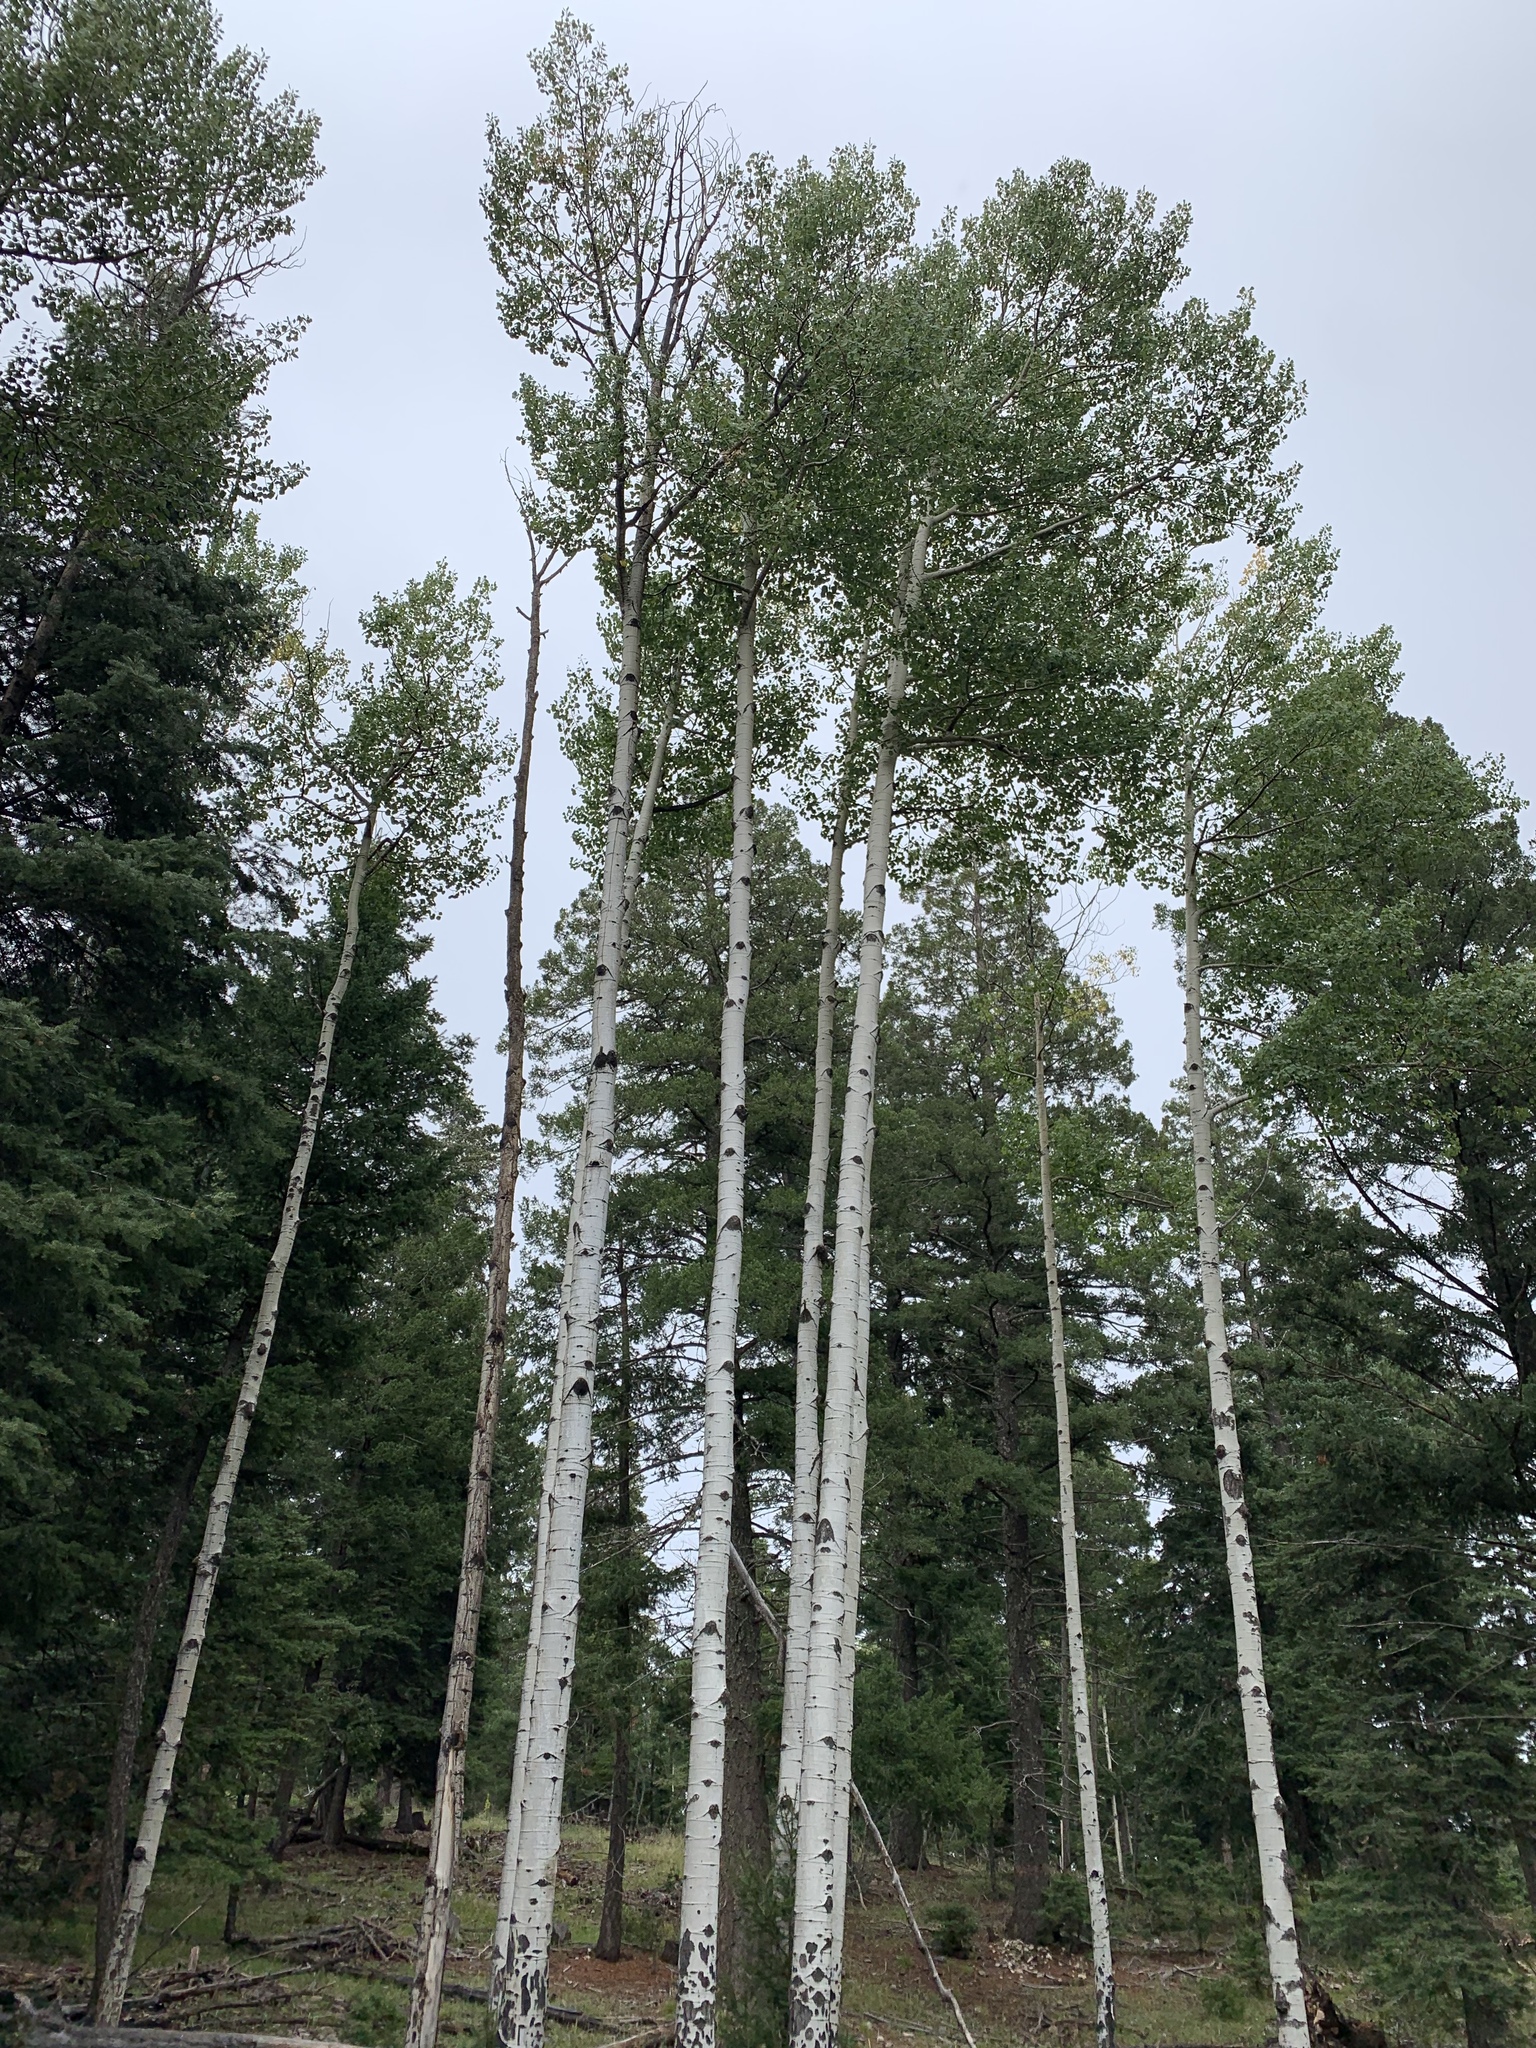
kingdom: Plantae
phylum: Tracheophyta
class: Magnoliopsida
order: Malpighiales
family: Salicaceae
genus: Populus
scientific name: Populus tremuloides
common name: Quaking aspen
